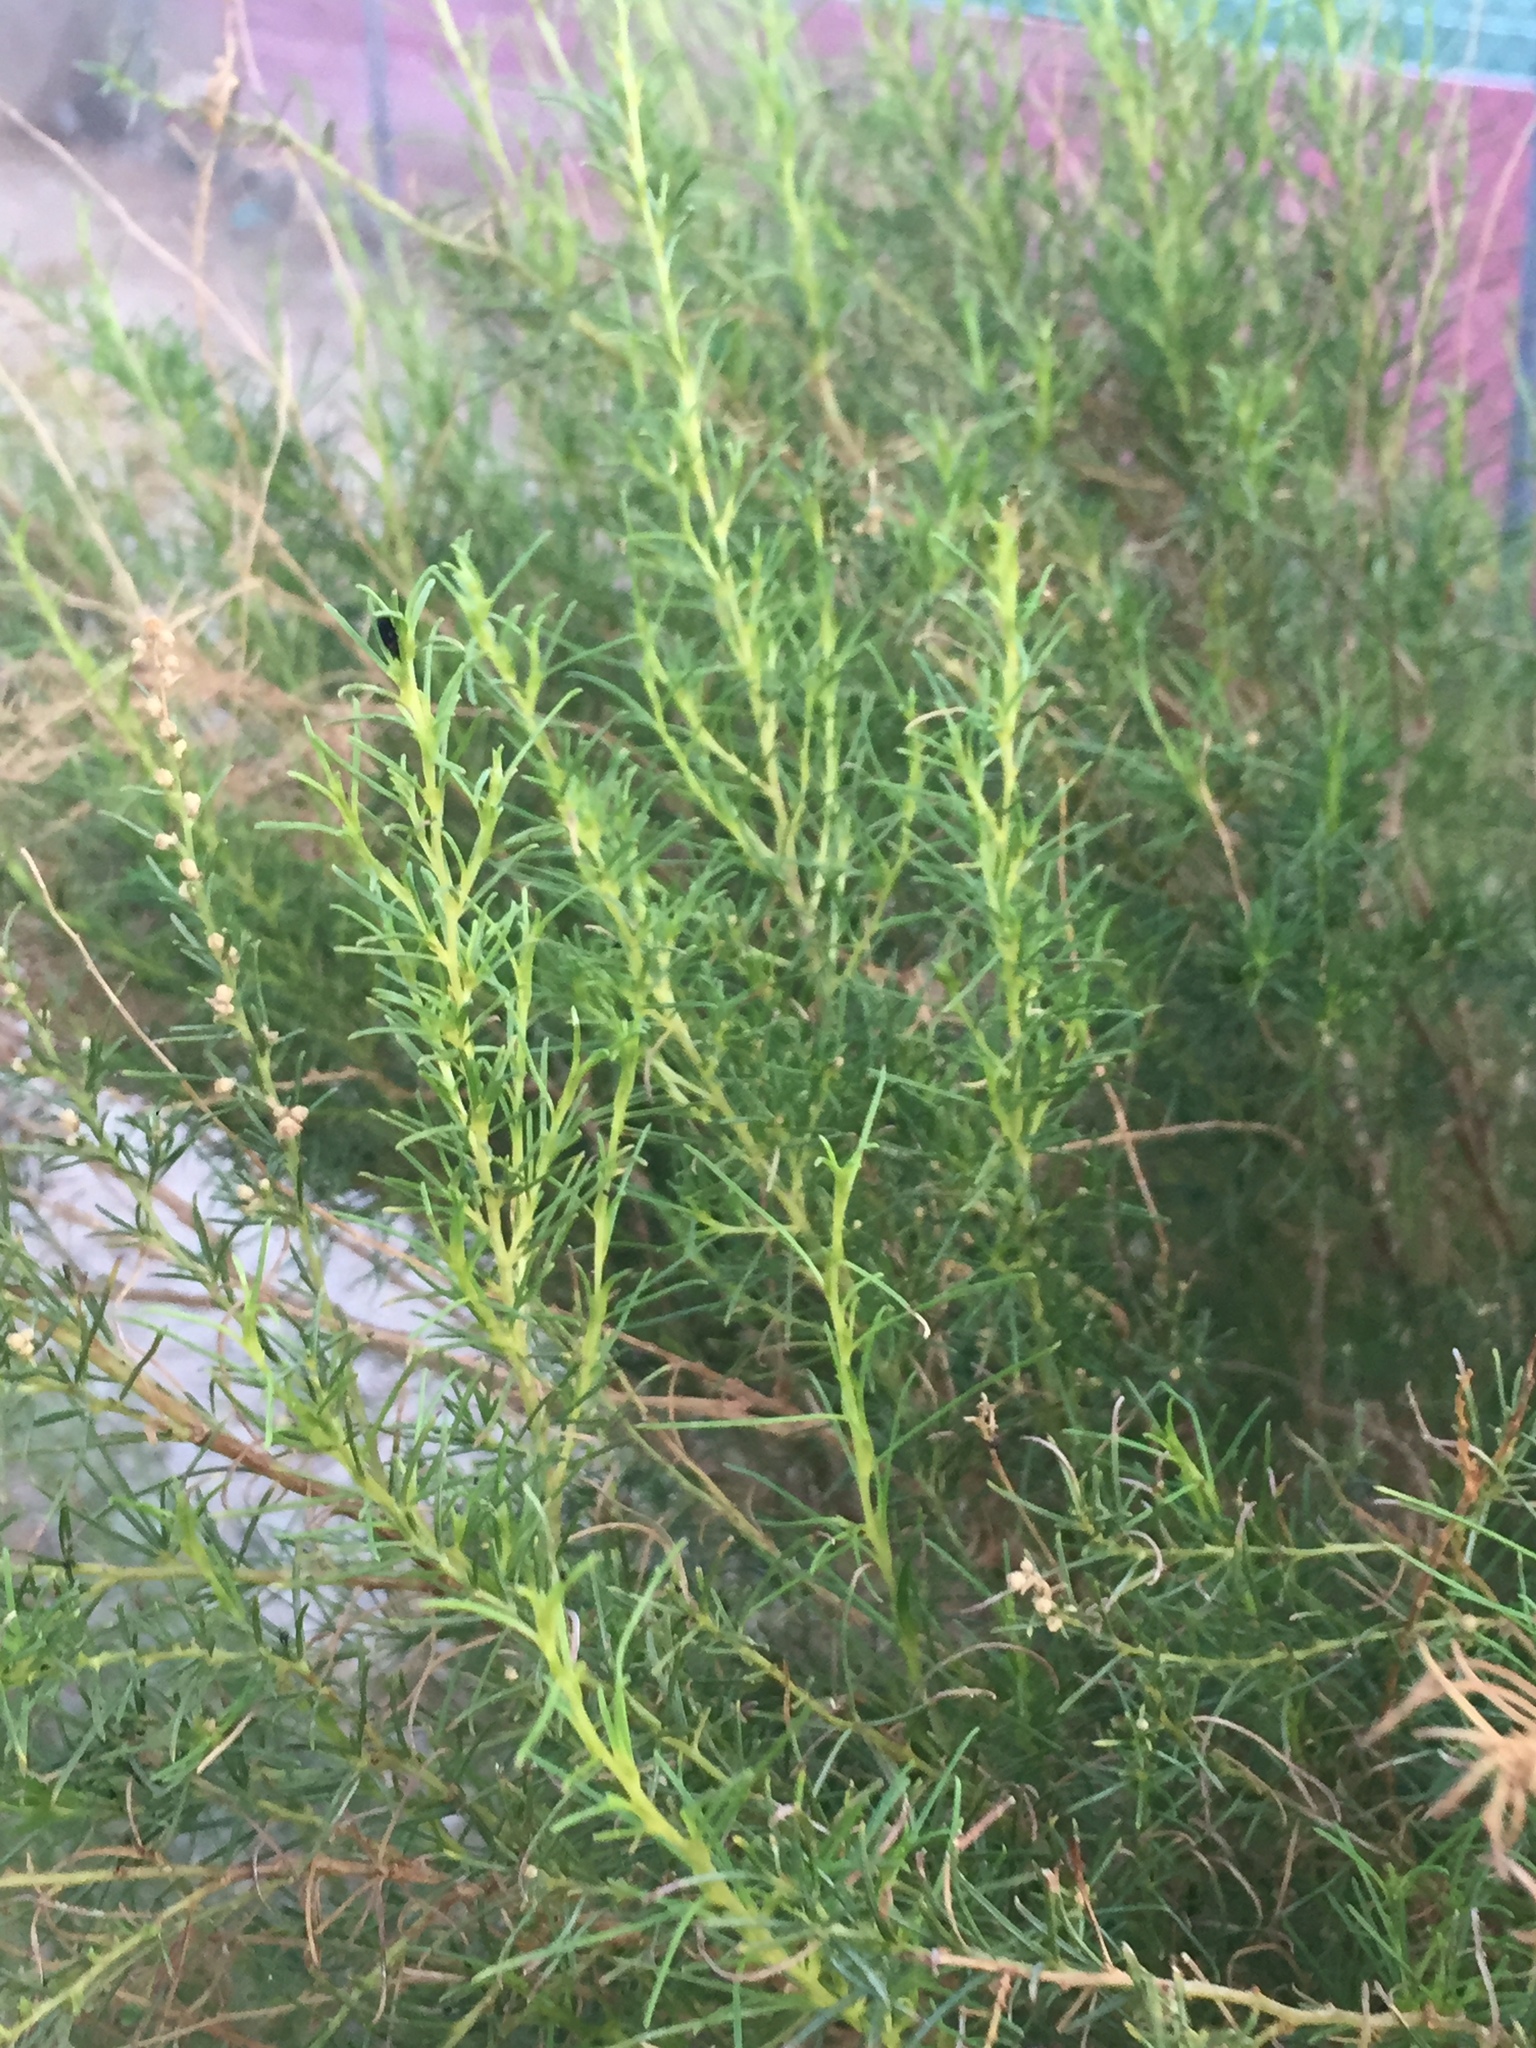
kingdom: Plantae
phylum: Tracheophyta
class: Magnoliopsida
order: Asterales
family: Asteraceae
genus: Ambrosia
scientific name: Ambrosia monogyra
